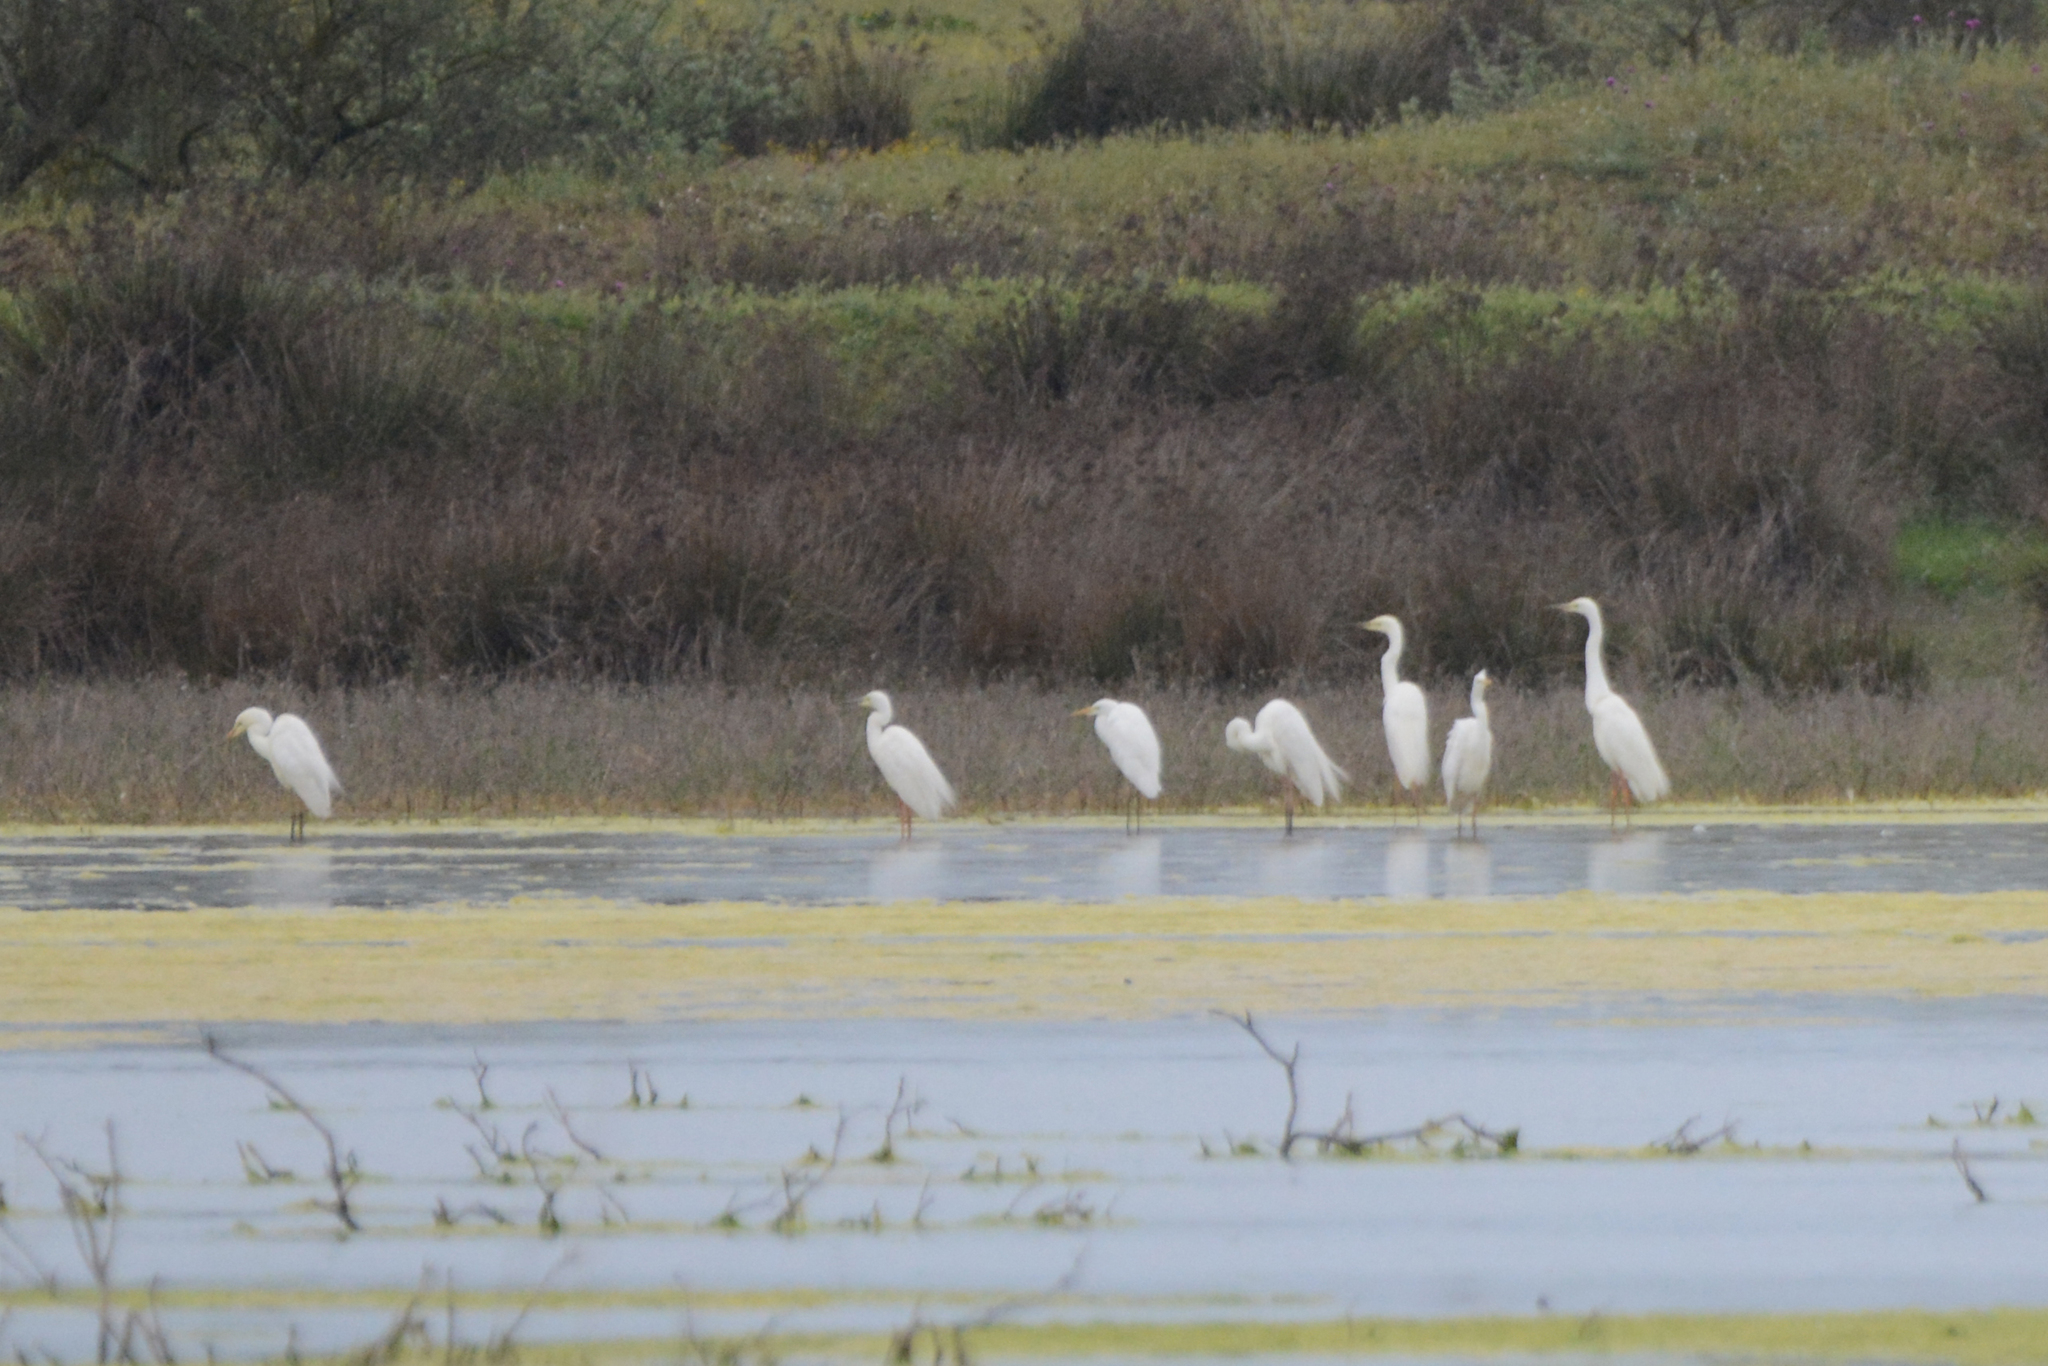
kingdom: Animalia
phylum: Chordata
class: Aves
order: Pelecaniformes
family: Ardeidae
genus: Ardea
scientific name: Ardea alba
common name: Great egret
